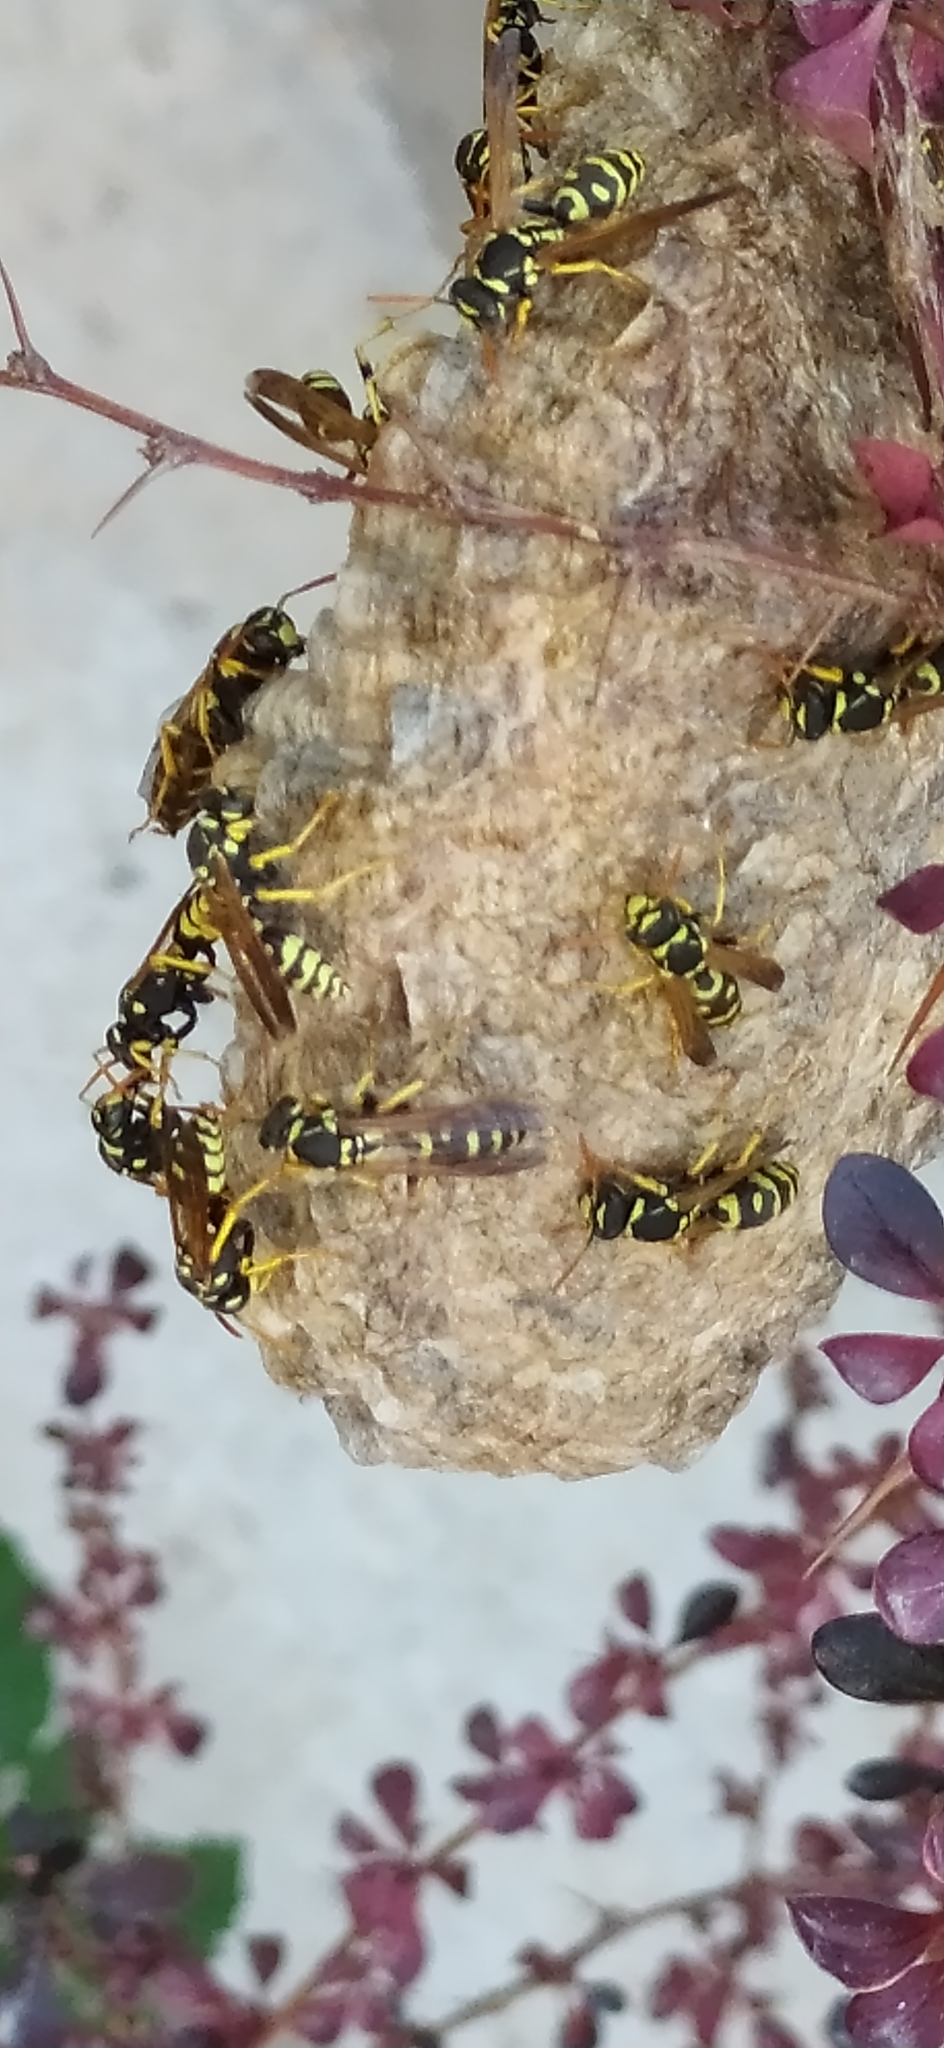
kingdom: Animalia
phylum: Arthropoda
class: Insecta
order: Hymenoptera
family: Eumenidae
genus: Polistes
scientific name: Polistes gallicus
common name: Paper wasp
